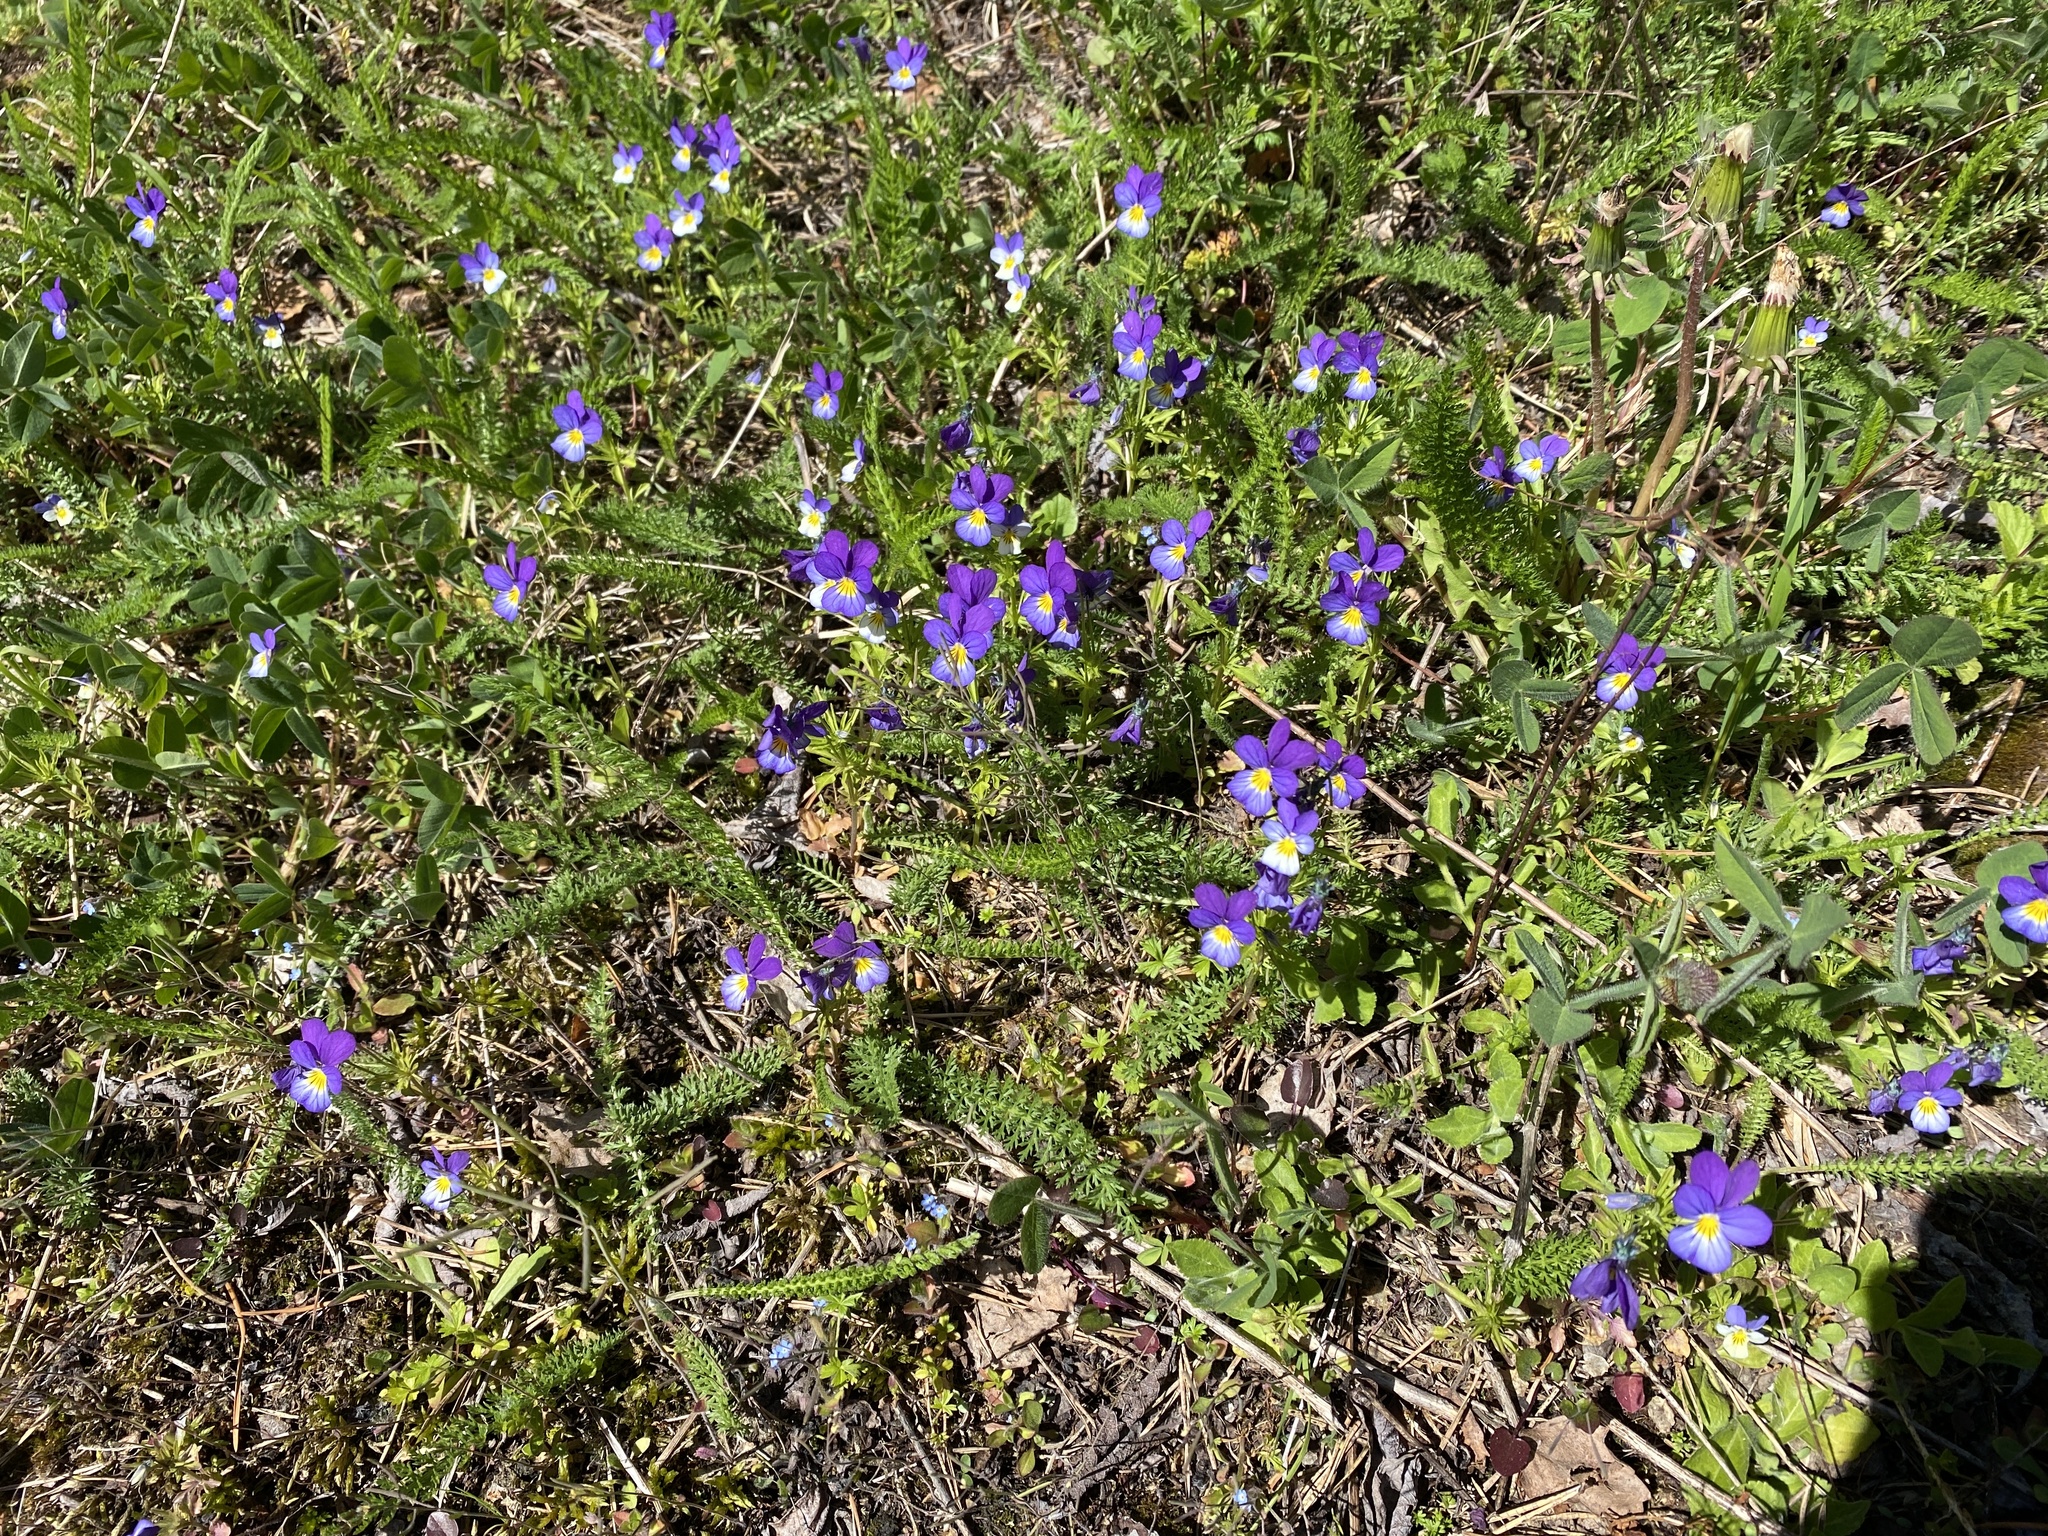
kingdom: Plantae
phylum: Tracheophyta
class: Magnoliopsida
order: Malpighiales
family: Violaceae
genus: Viola
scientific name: Viola tricolor
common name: Pansy
